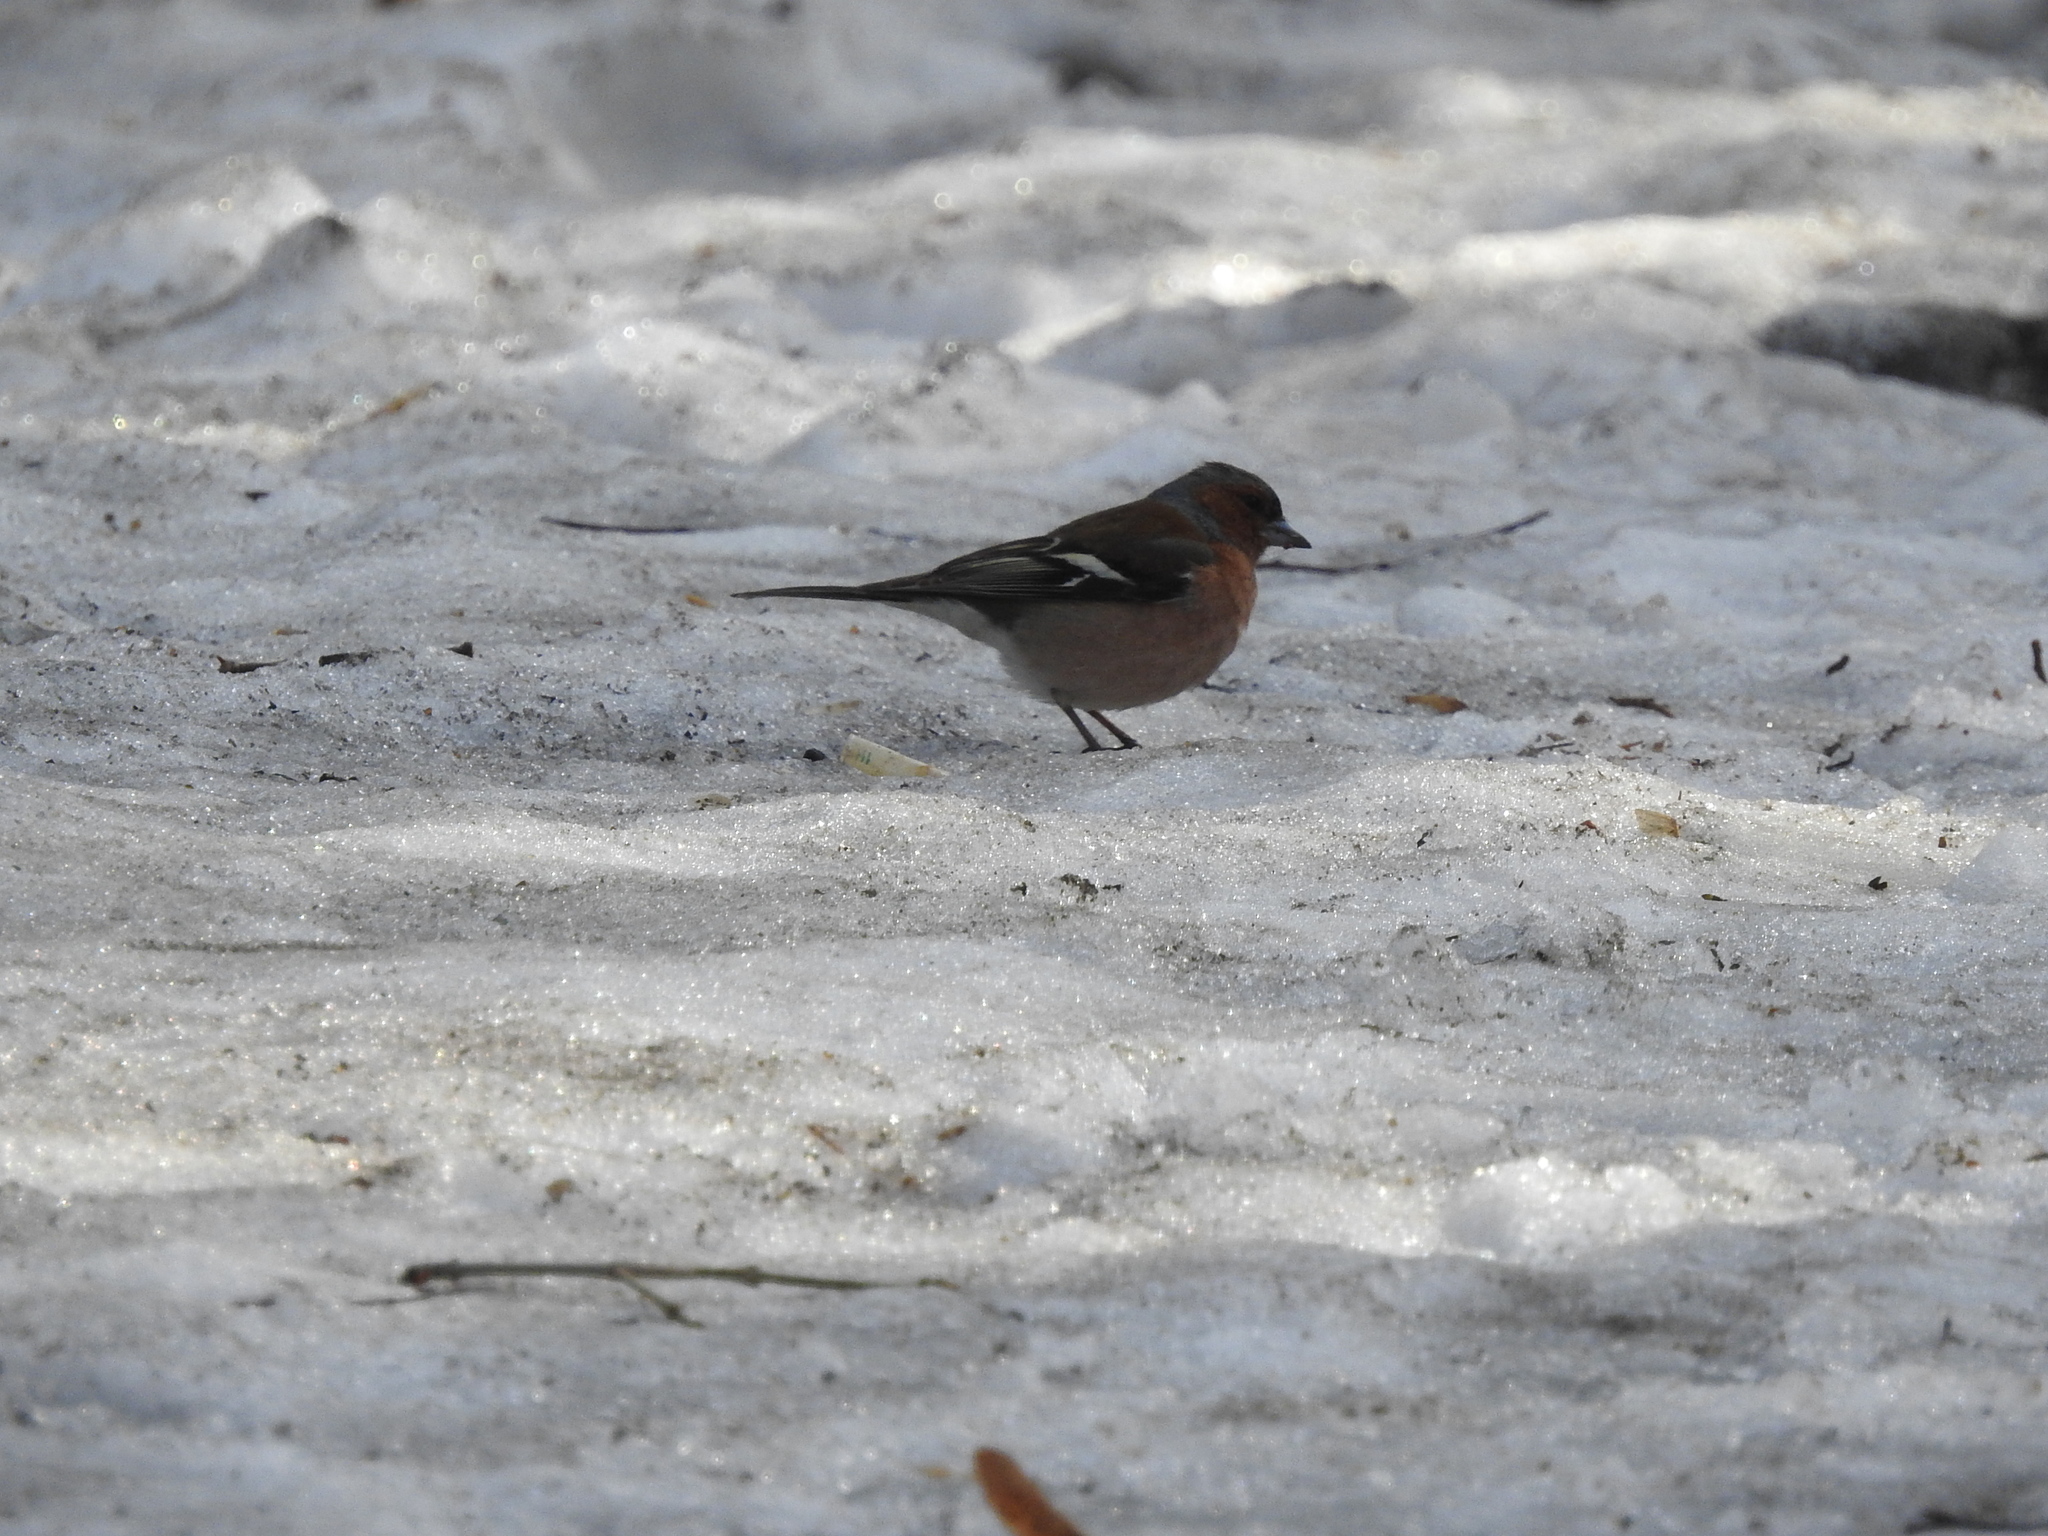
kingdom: Animalia
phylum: Chordata
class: Aves
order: Passeriformes
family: Fringillidae
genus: Fringilla
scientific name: Fringilla coelebs
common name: Common chaffinch
